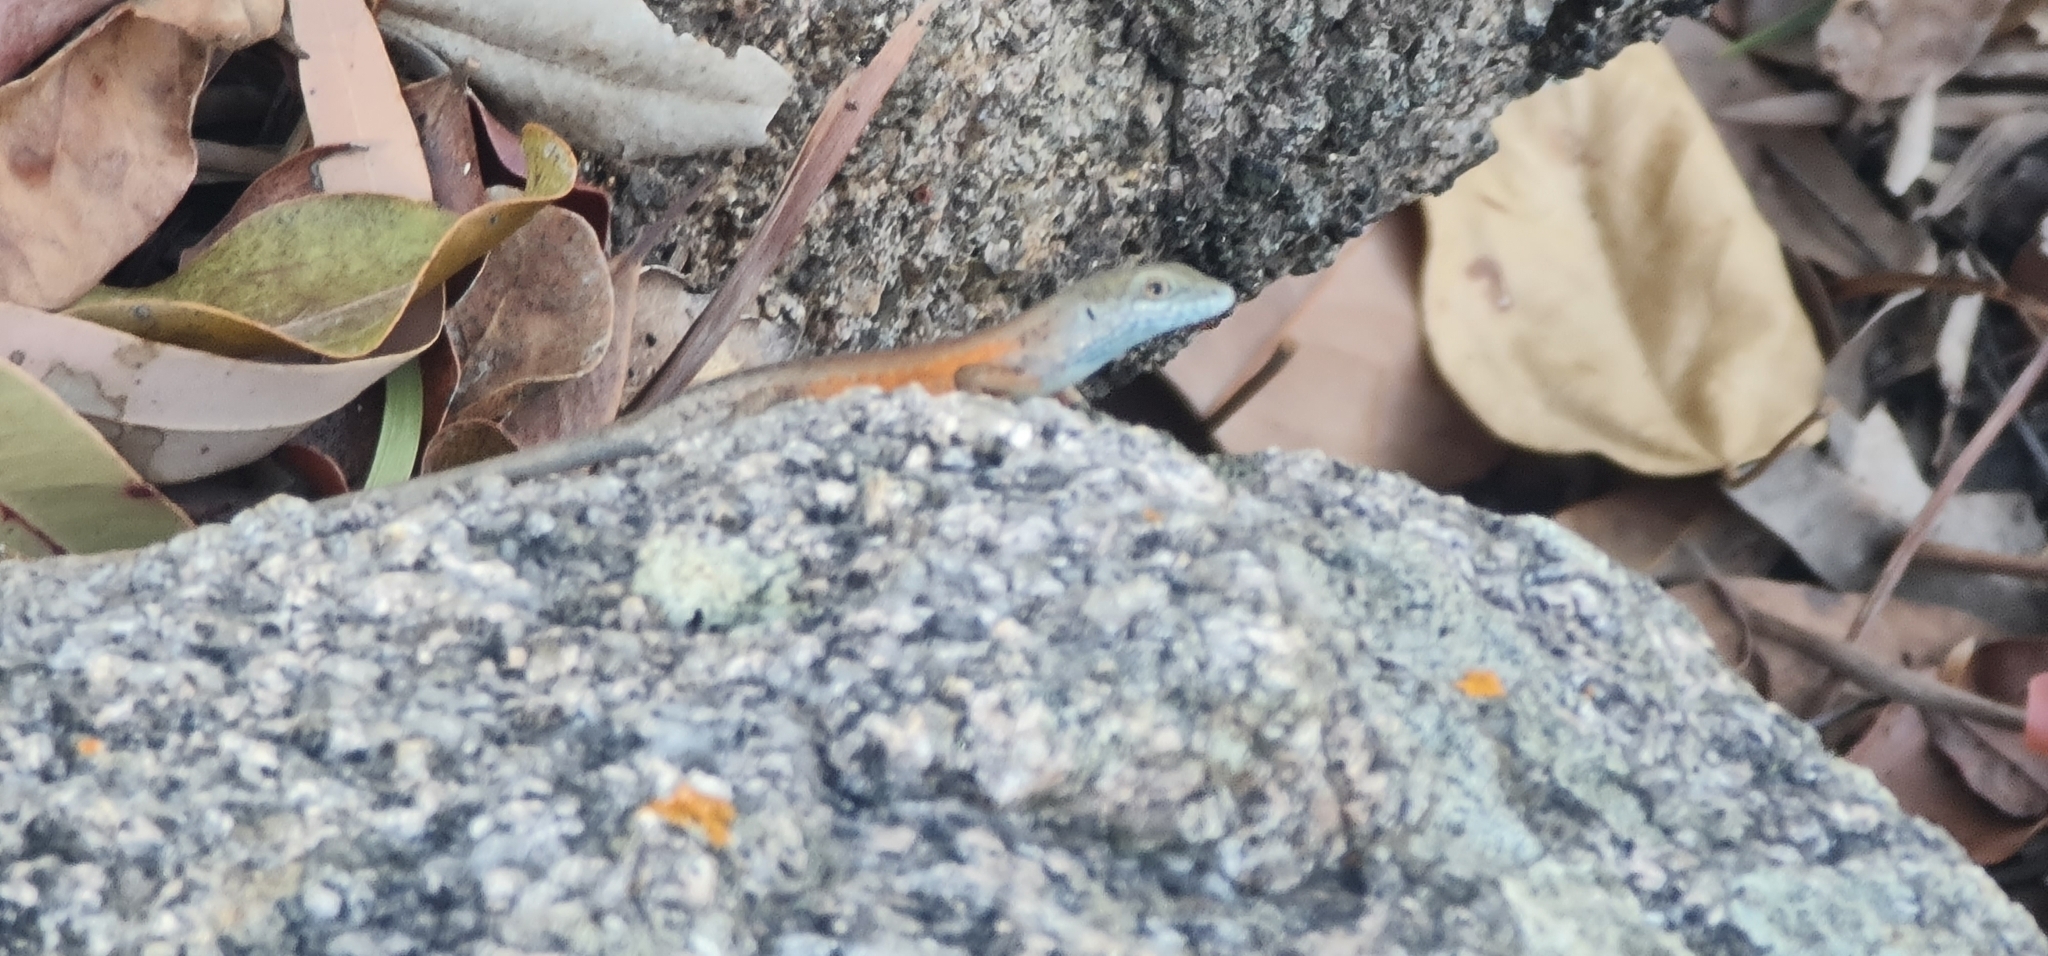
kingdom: Animalia
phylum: Chordata
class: Squamata
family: Scincidae
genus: Carlia
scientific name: Carlia rubigo
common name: Orange-flanked rainbow-skink
